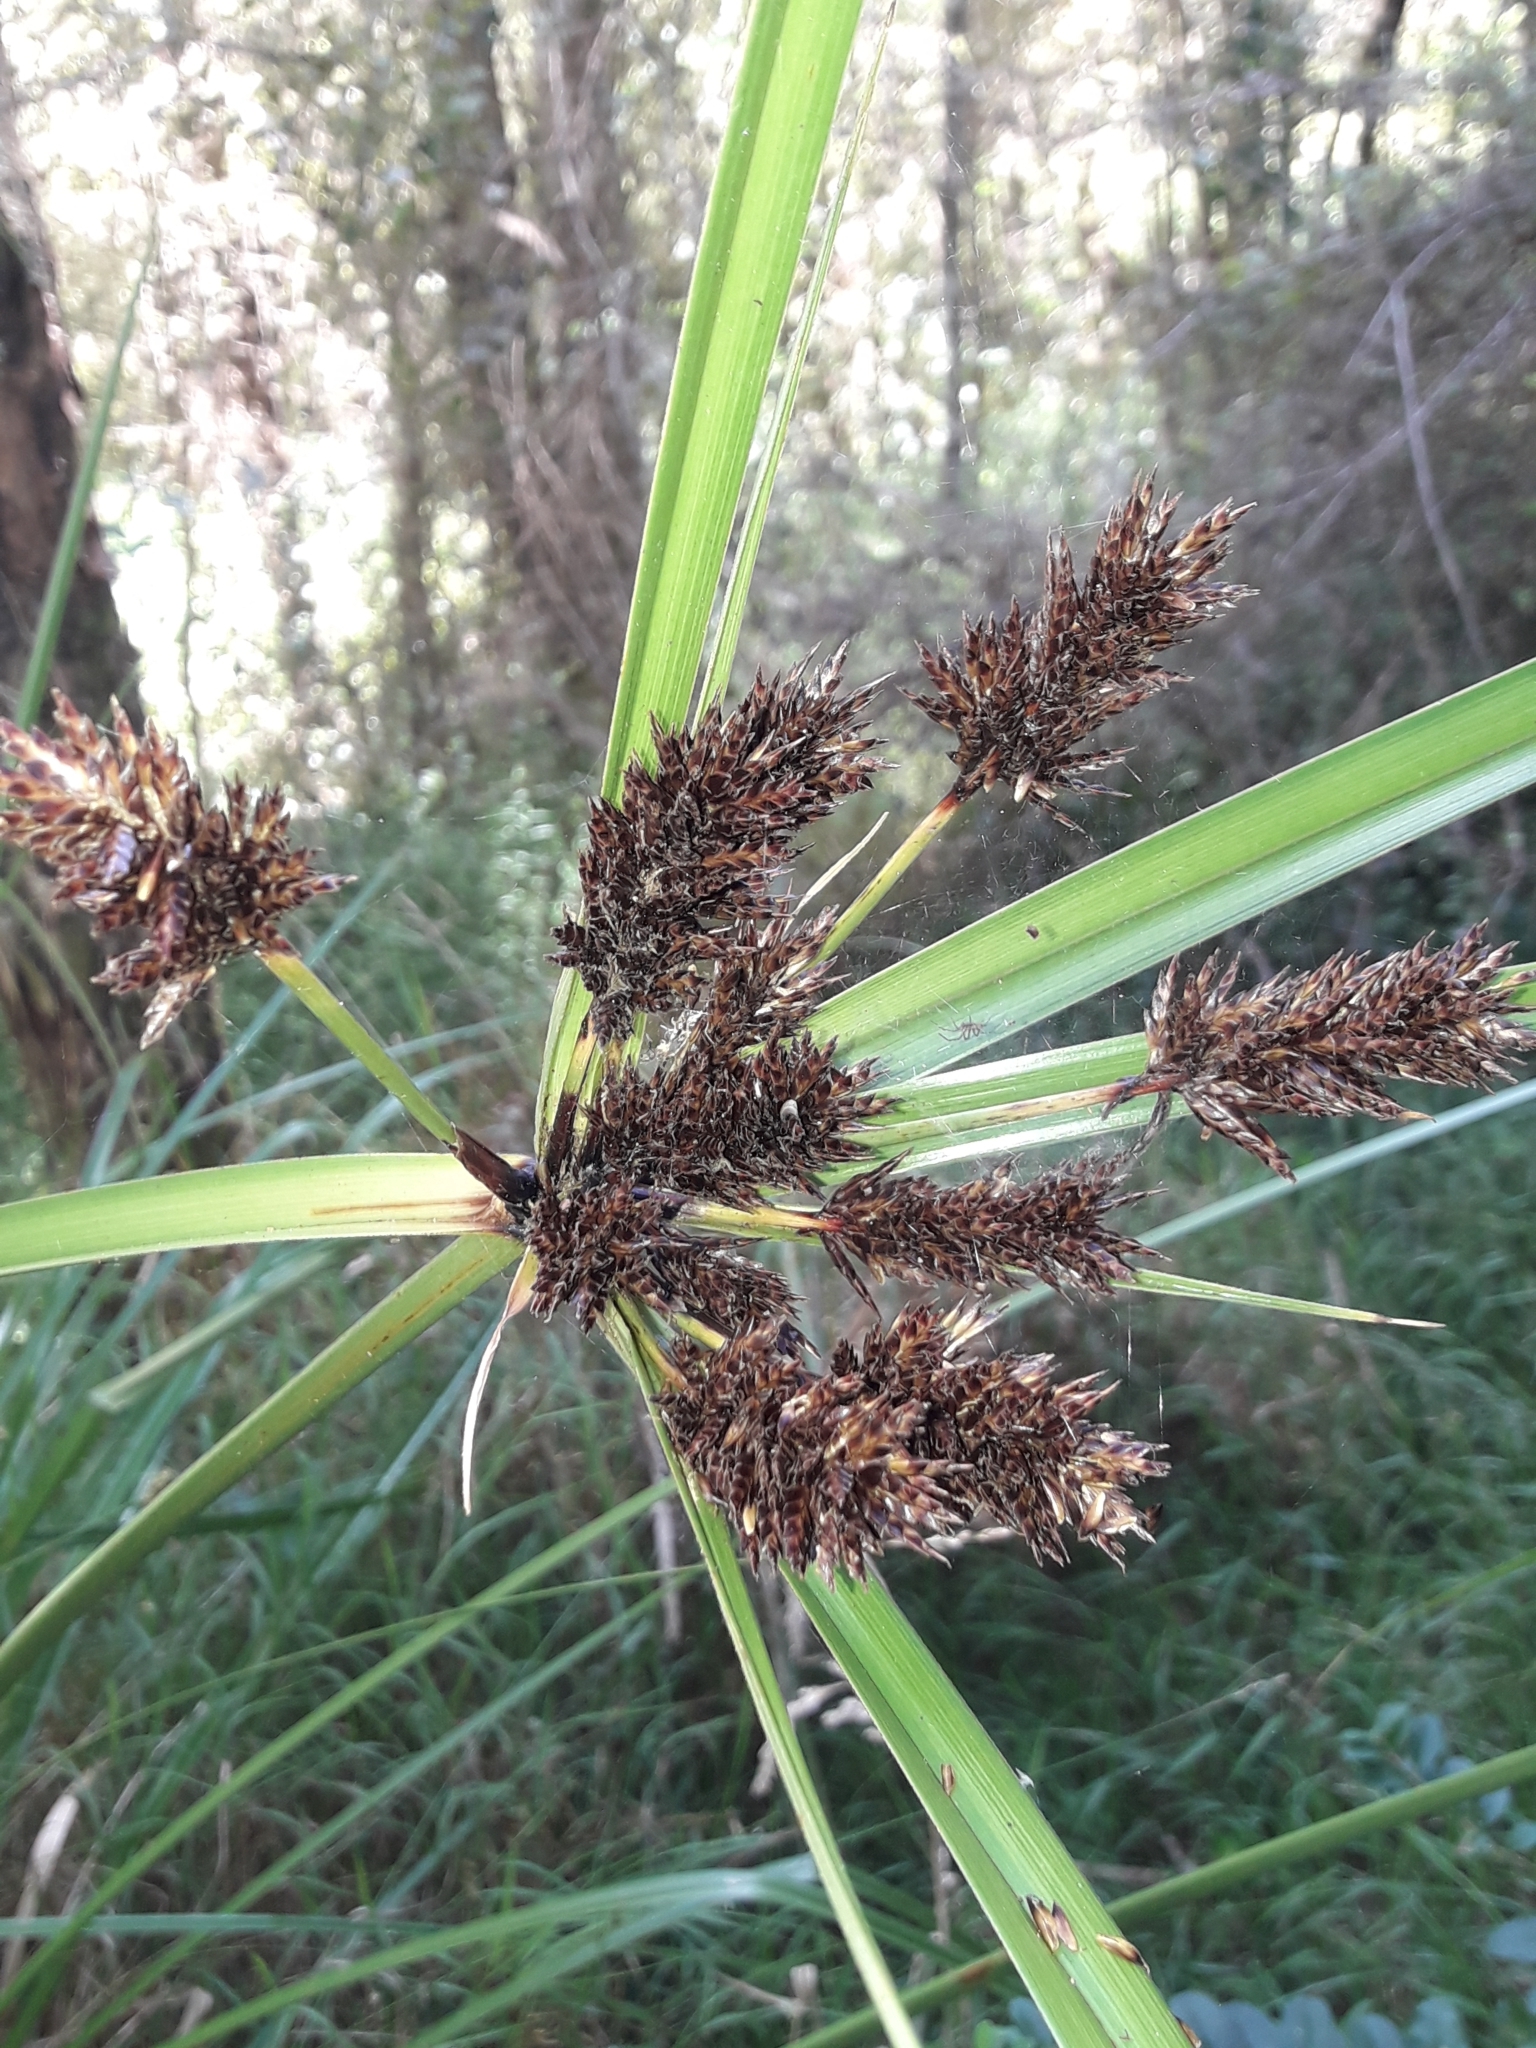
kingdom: Plantae
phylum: Tracheophyta
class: Liliopsida
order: Poales
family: Cyperaceae
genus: Cyperus
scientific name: Cyperus ustulatus
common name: Giant umbrella-sedge
